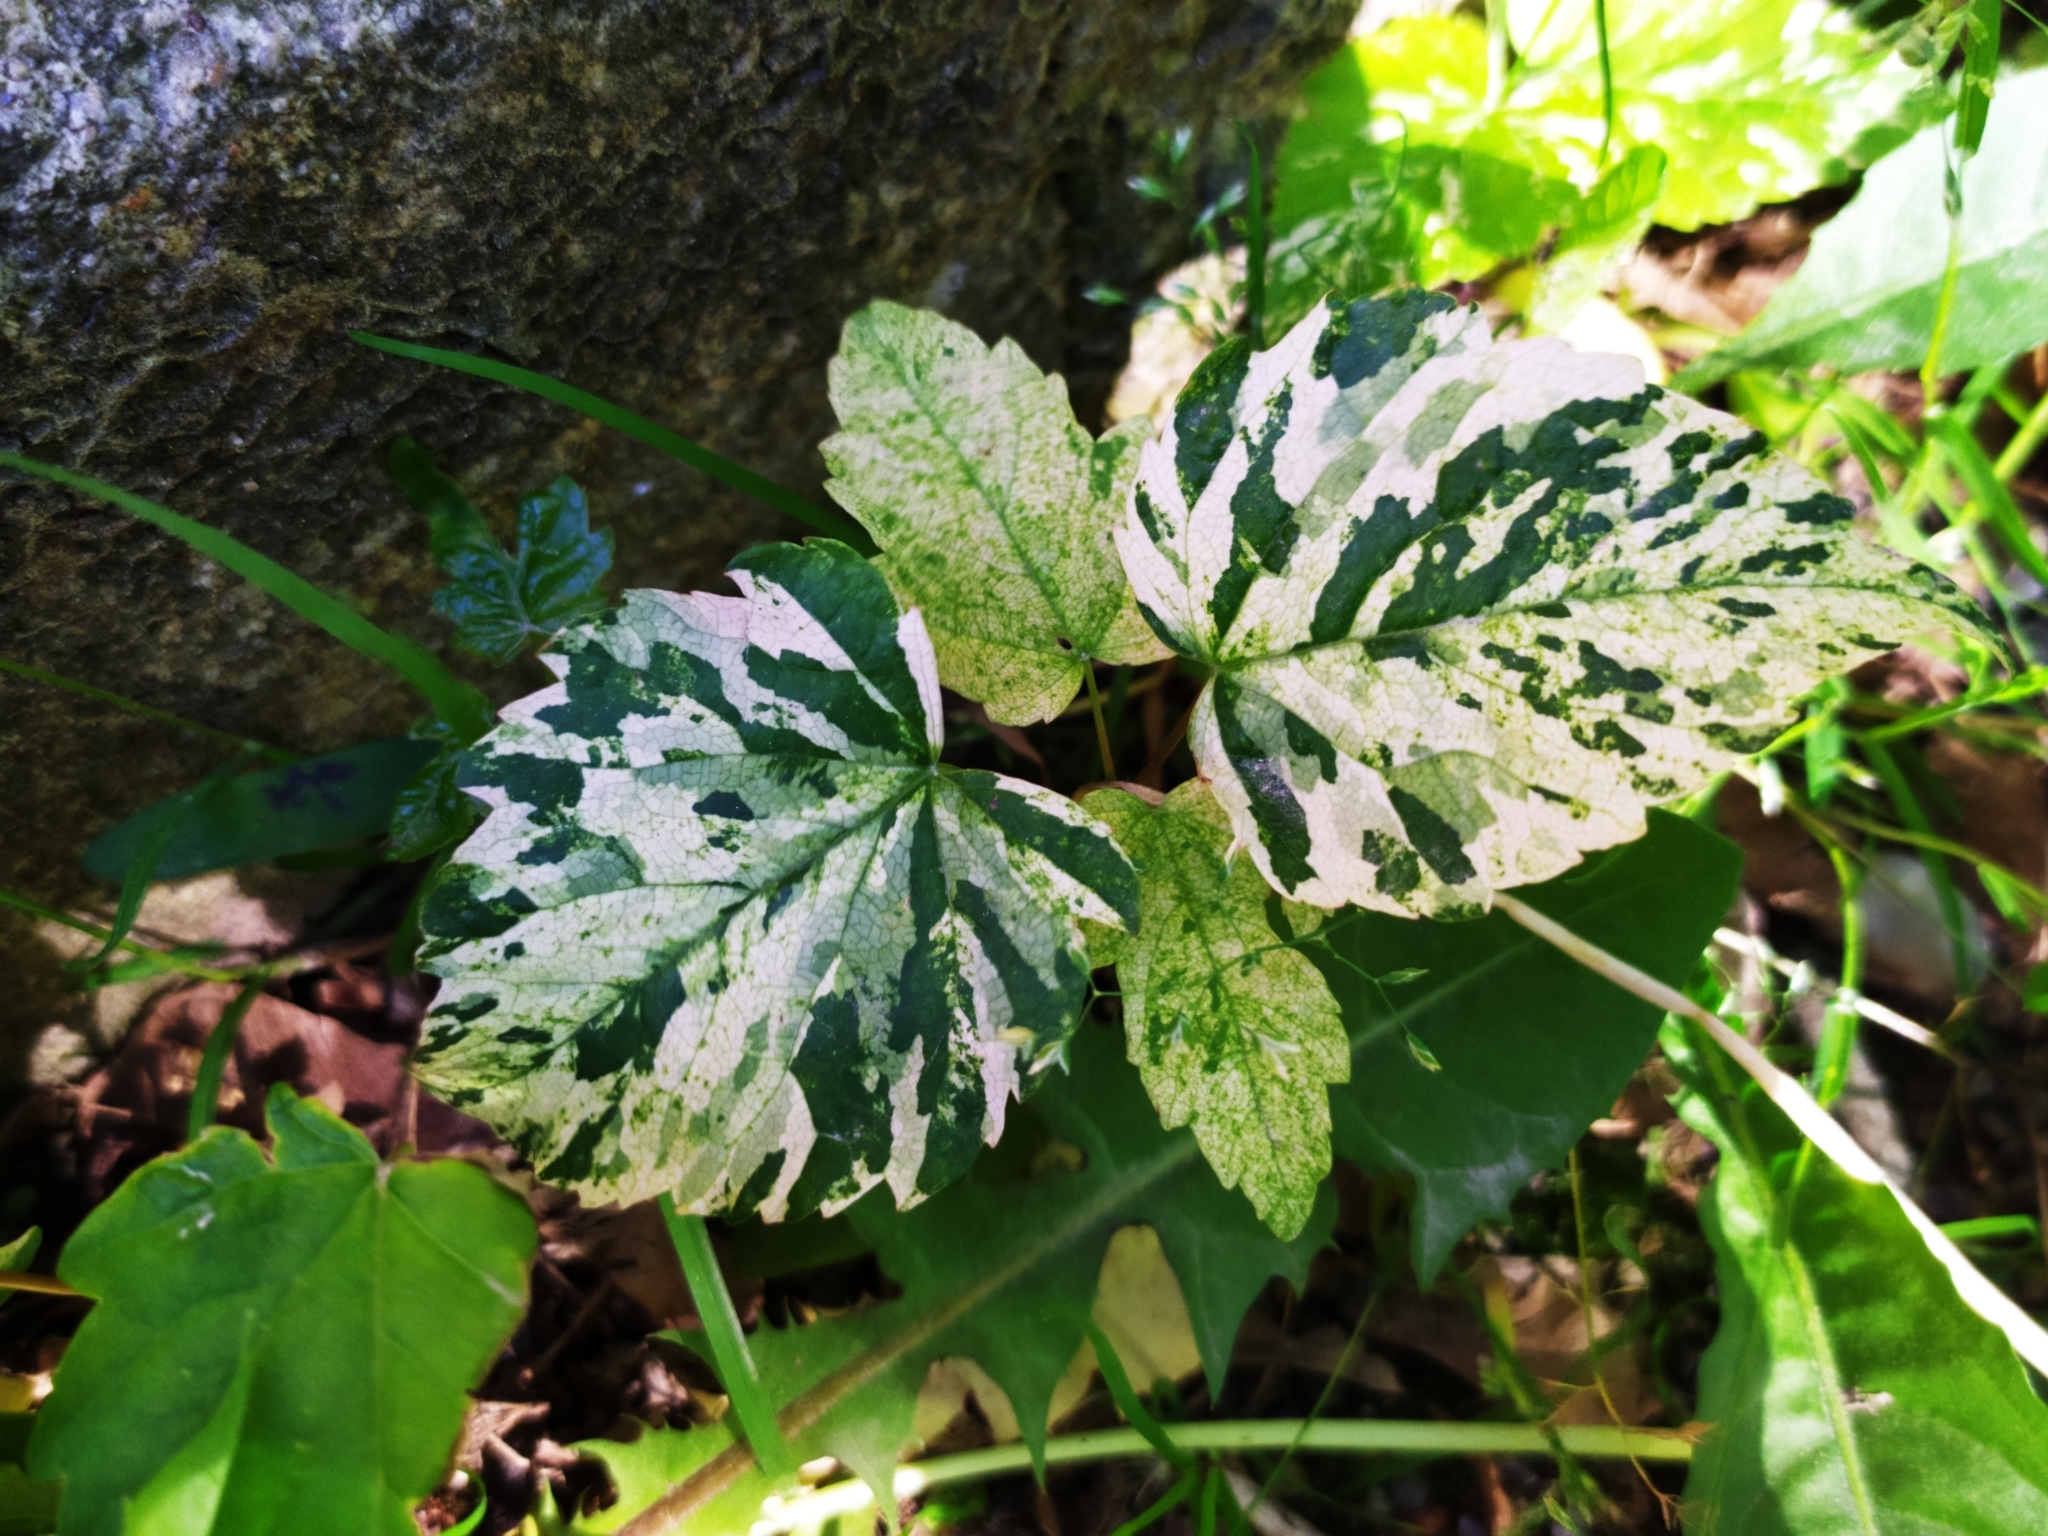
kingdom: Plantae
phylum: Tracheophyta
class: Magnoliopsida
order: Sapindales
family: Sapindaceae
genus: Acer
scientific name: Acer pseudoplatanus
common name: Sycamore
